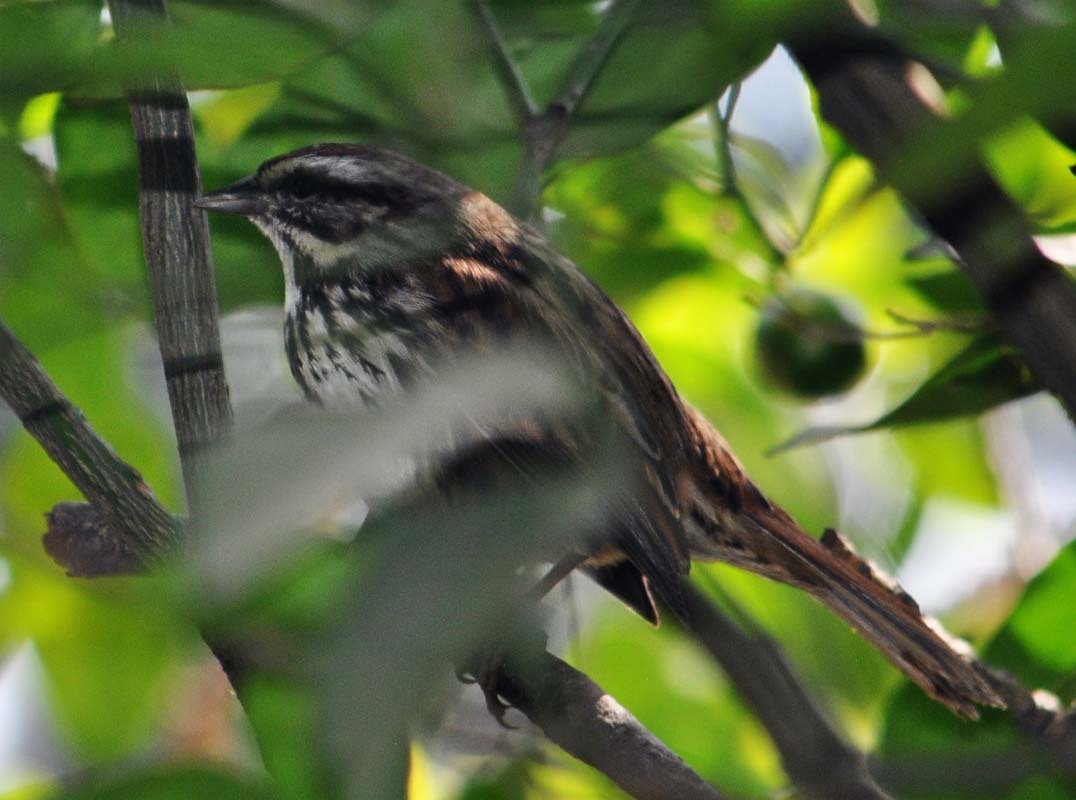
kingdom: Animalia
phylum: Chordata
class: Aves
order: Passeriformes
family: Passerellidae
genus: Melospiza
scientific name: Melospiza melodia
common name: Song sparrow
